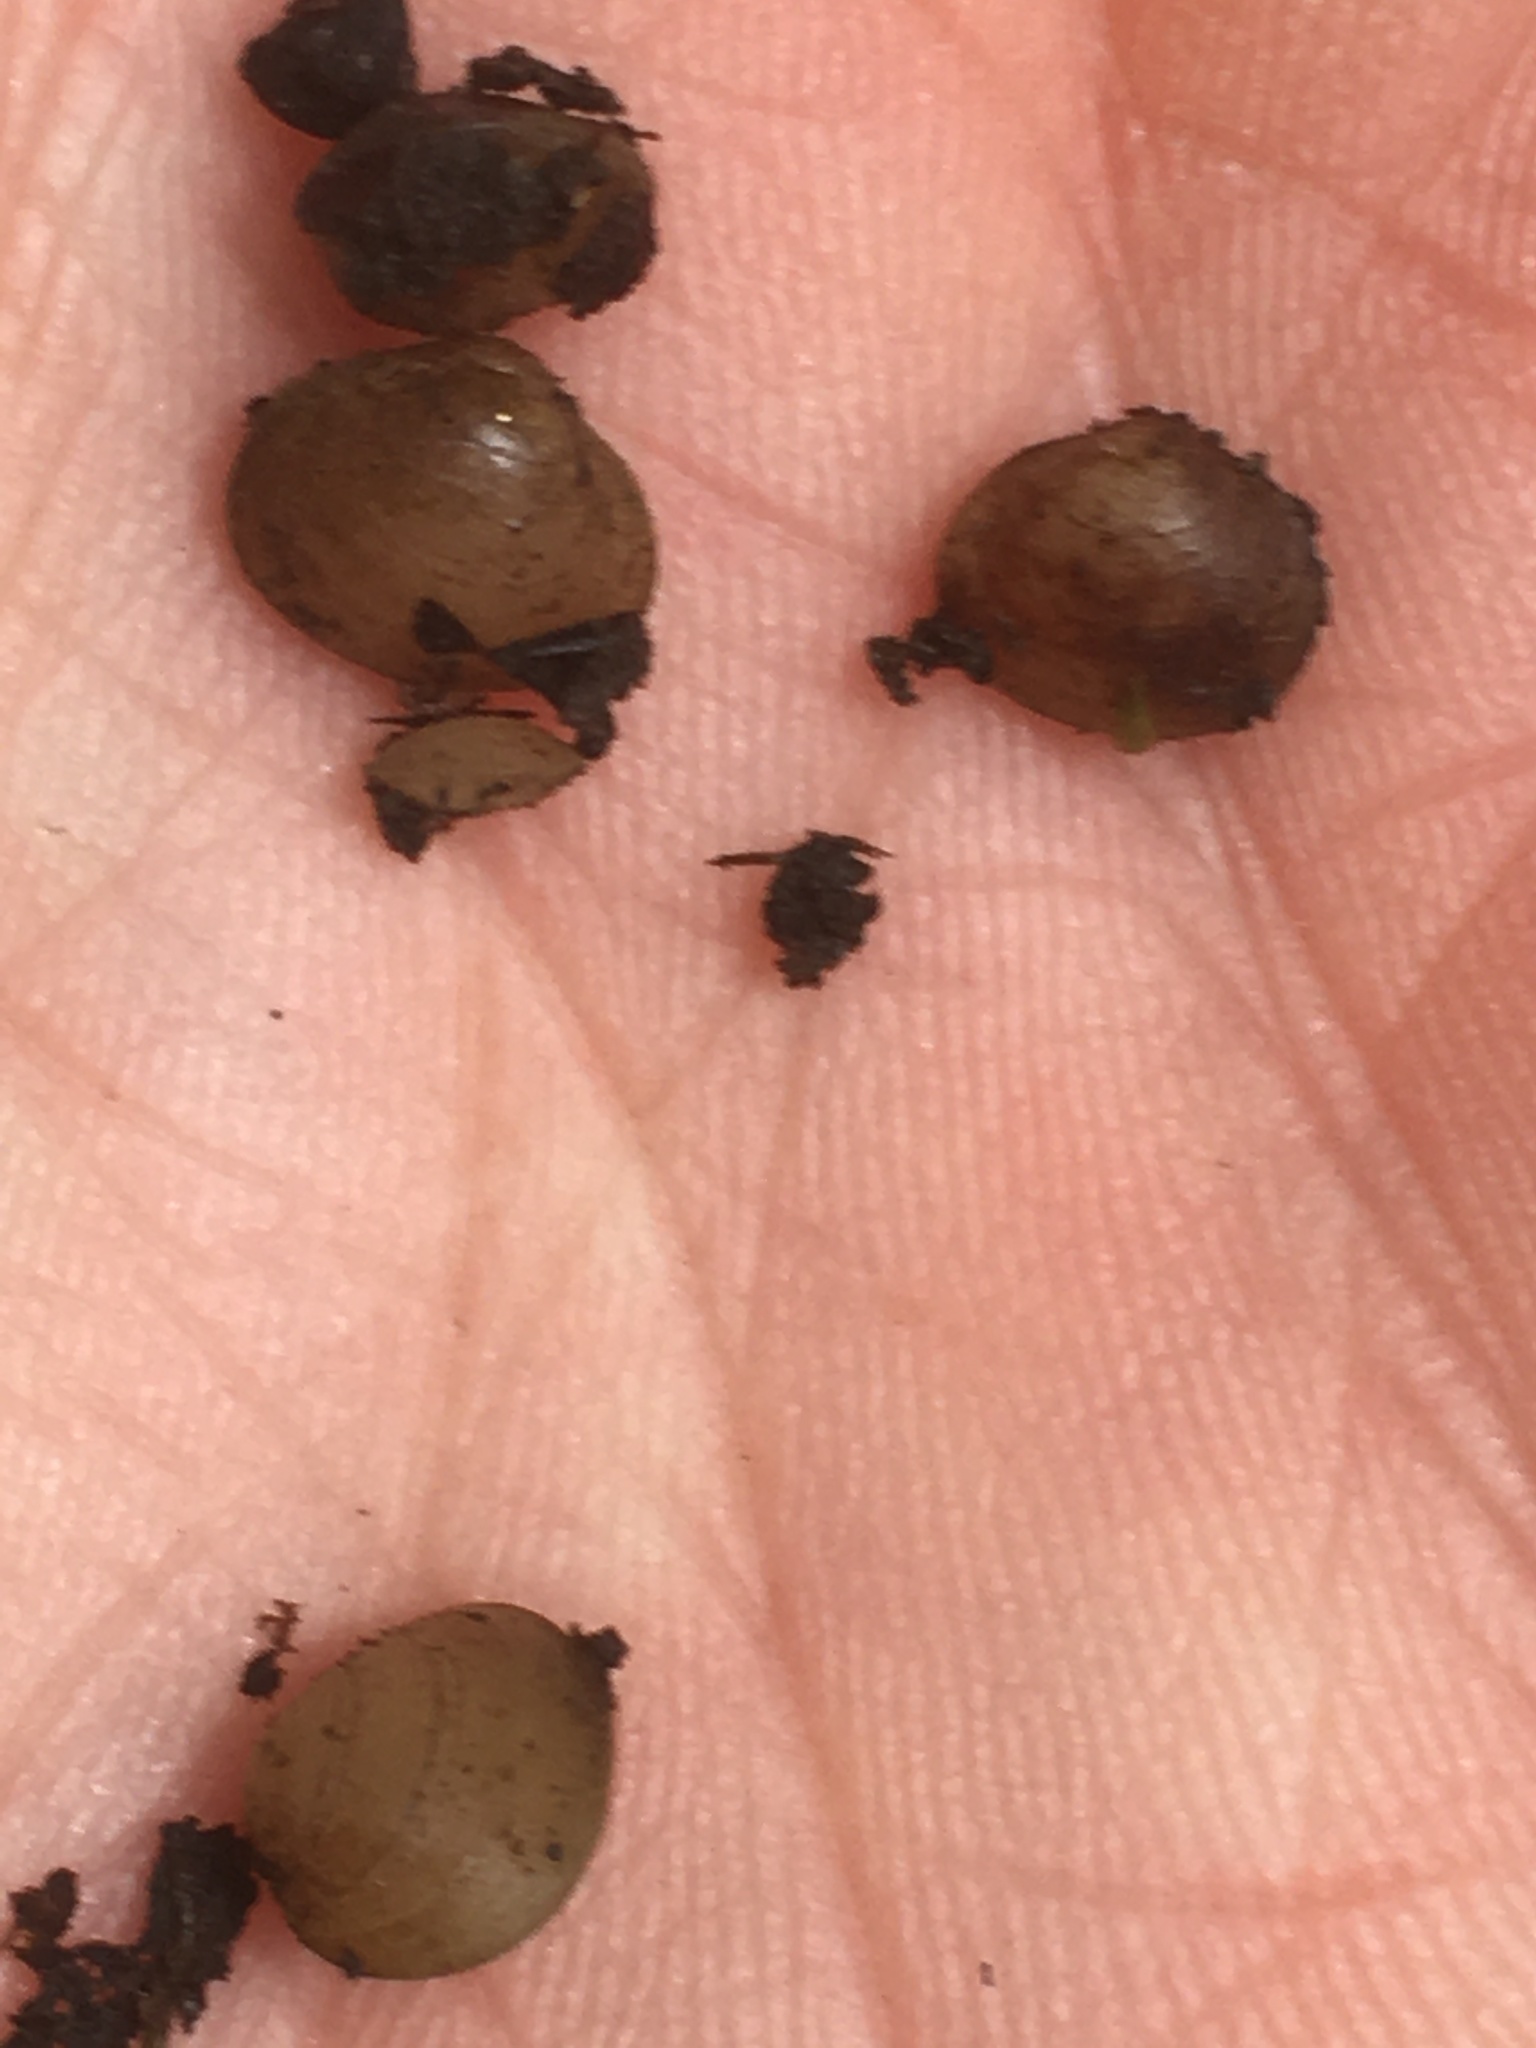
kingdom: Animalia
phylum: Mollusca
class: Bivalvia
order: Sphaeriida
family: Sphaeriidae
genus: Sphaerium
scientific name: Sphaerium occidentale
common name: Herrington fingernailclam
